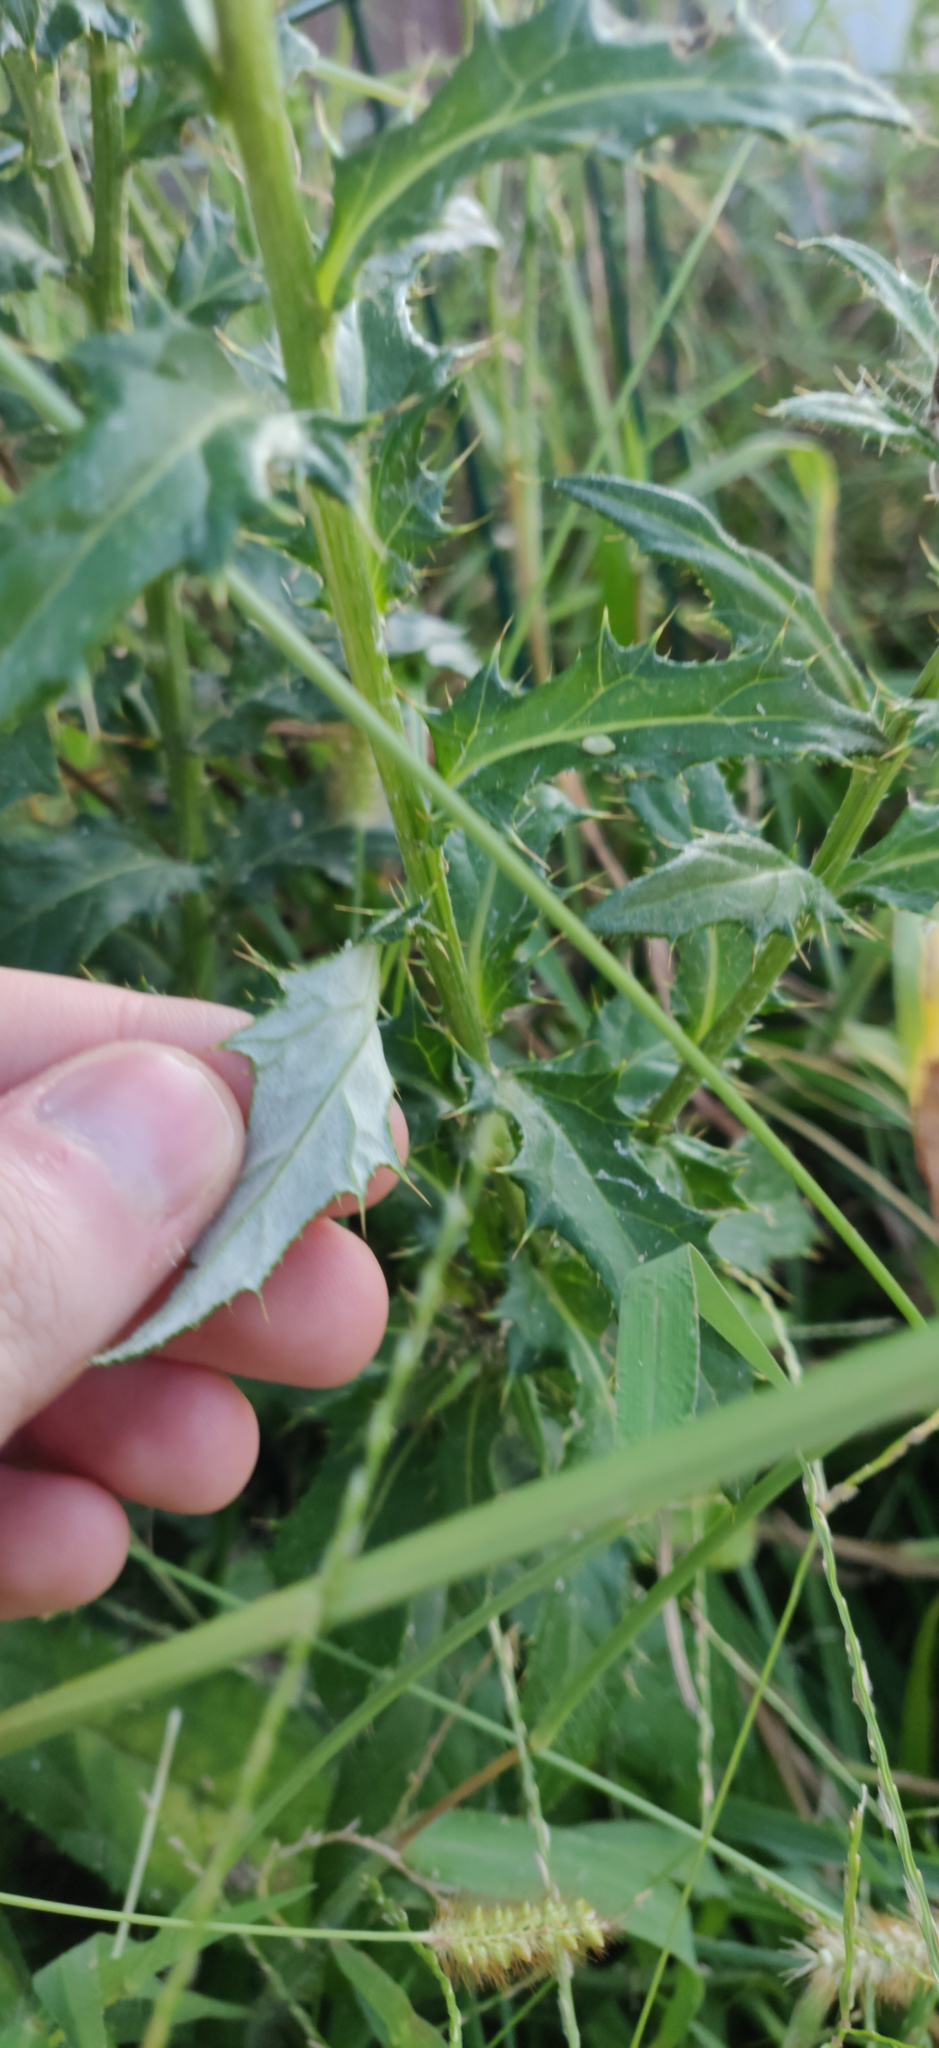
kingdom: Plantae
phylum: Tracheophyta
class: Magnoliopsida
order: Asterales
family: Asteraceae
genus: Cirsium
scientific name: Cirsium altissimum
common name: Roadside thistle
